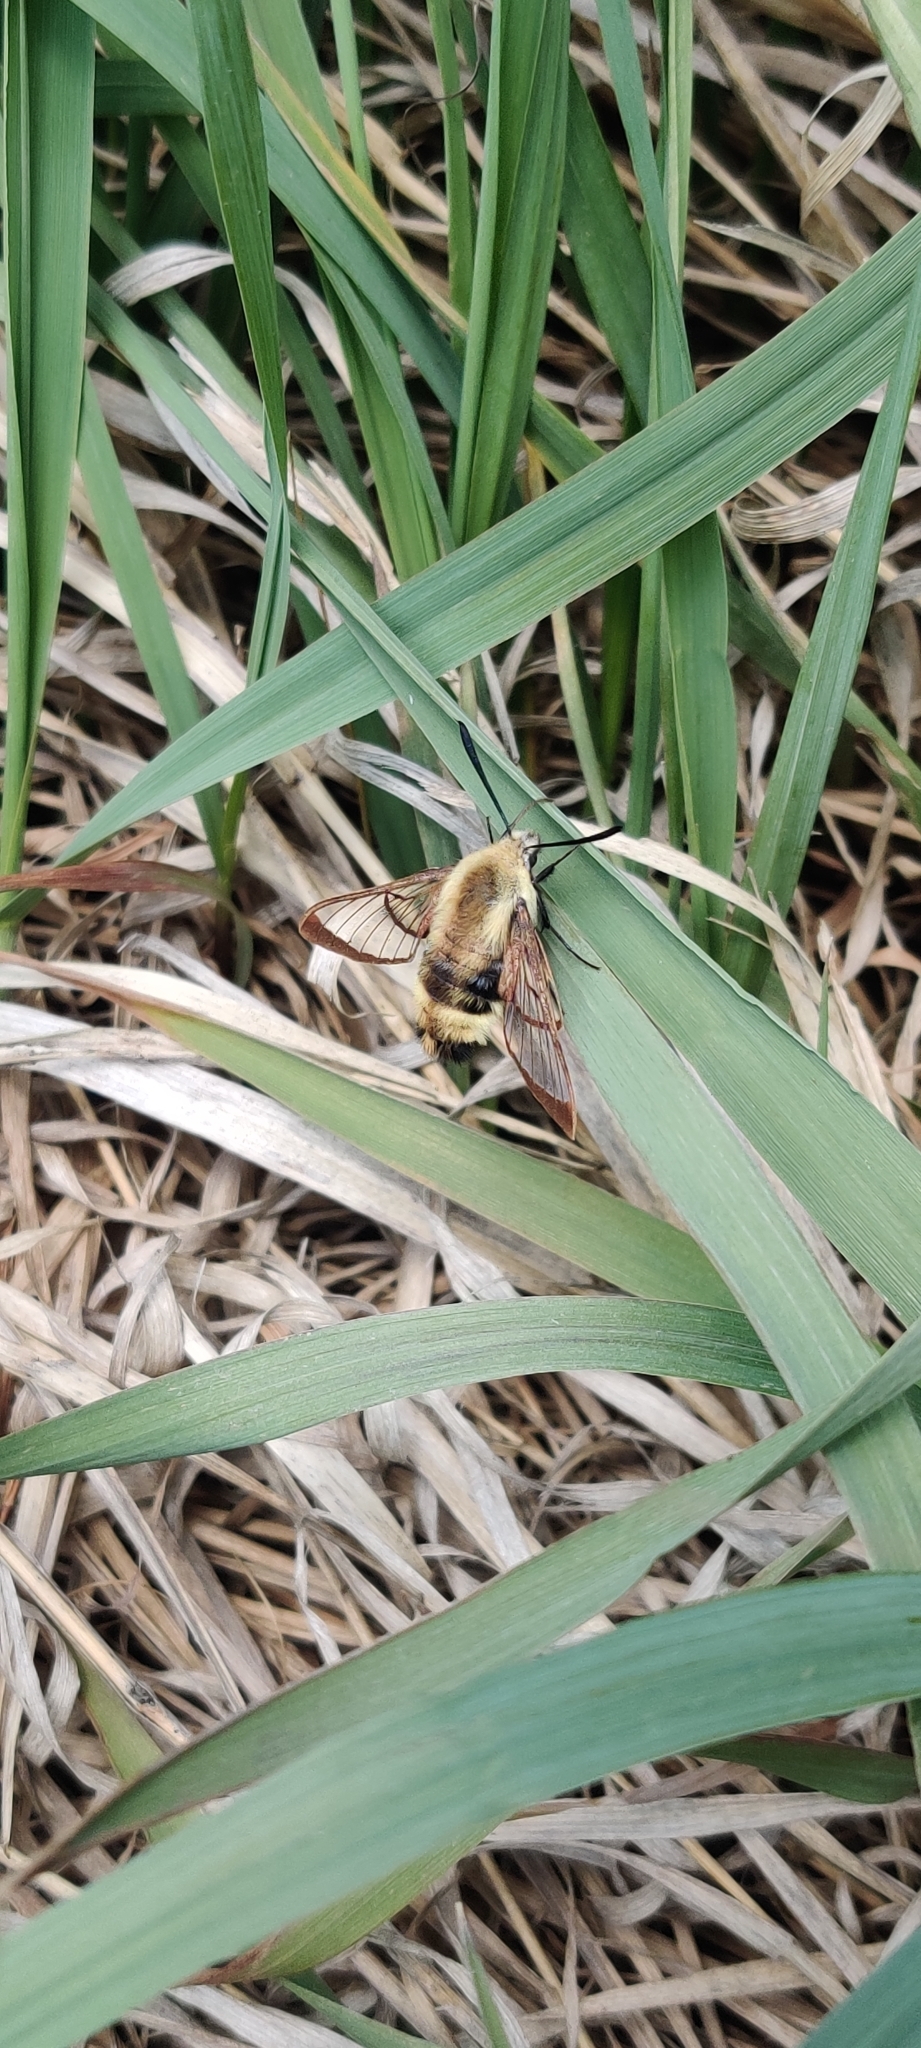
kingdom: Animalia
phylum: Arthropoda
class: Insecta
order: Lepidoptera
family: Sphingidae
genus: Hemaris
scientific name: Hemaris diffinis
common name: Bumblebee moth
